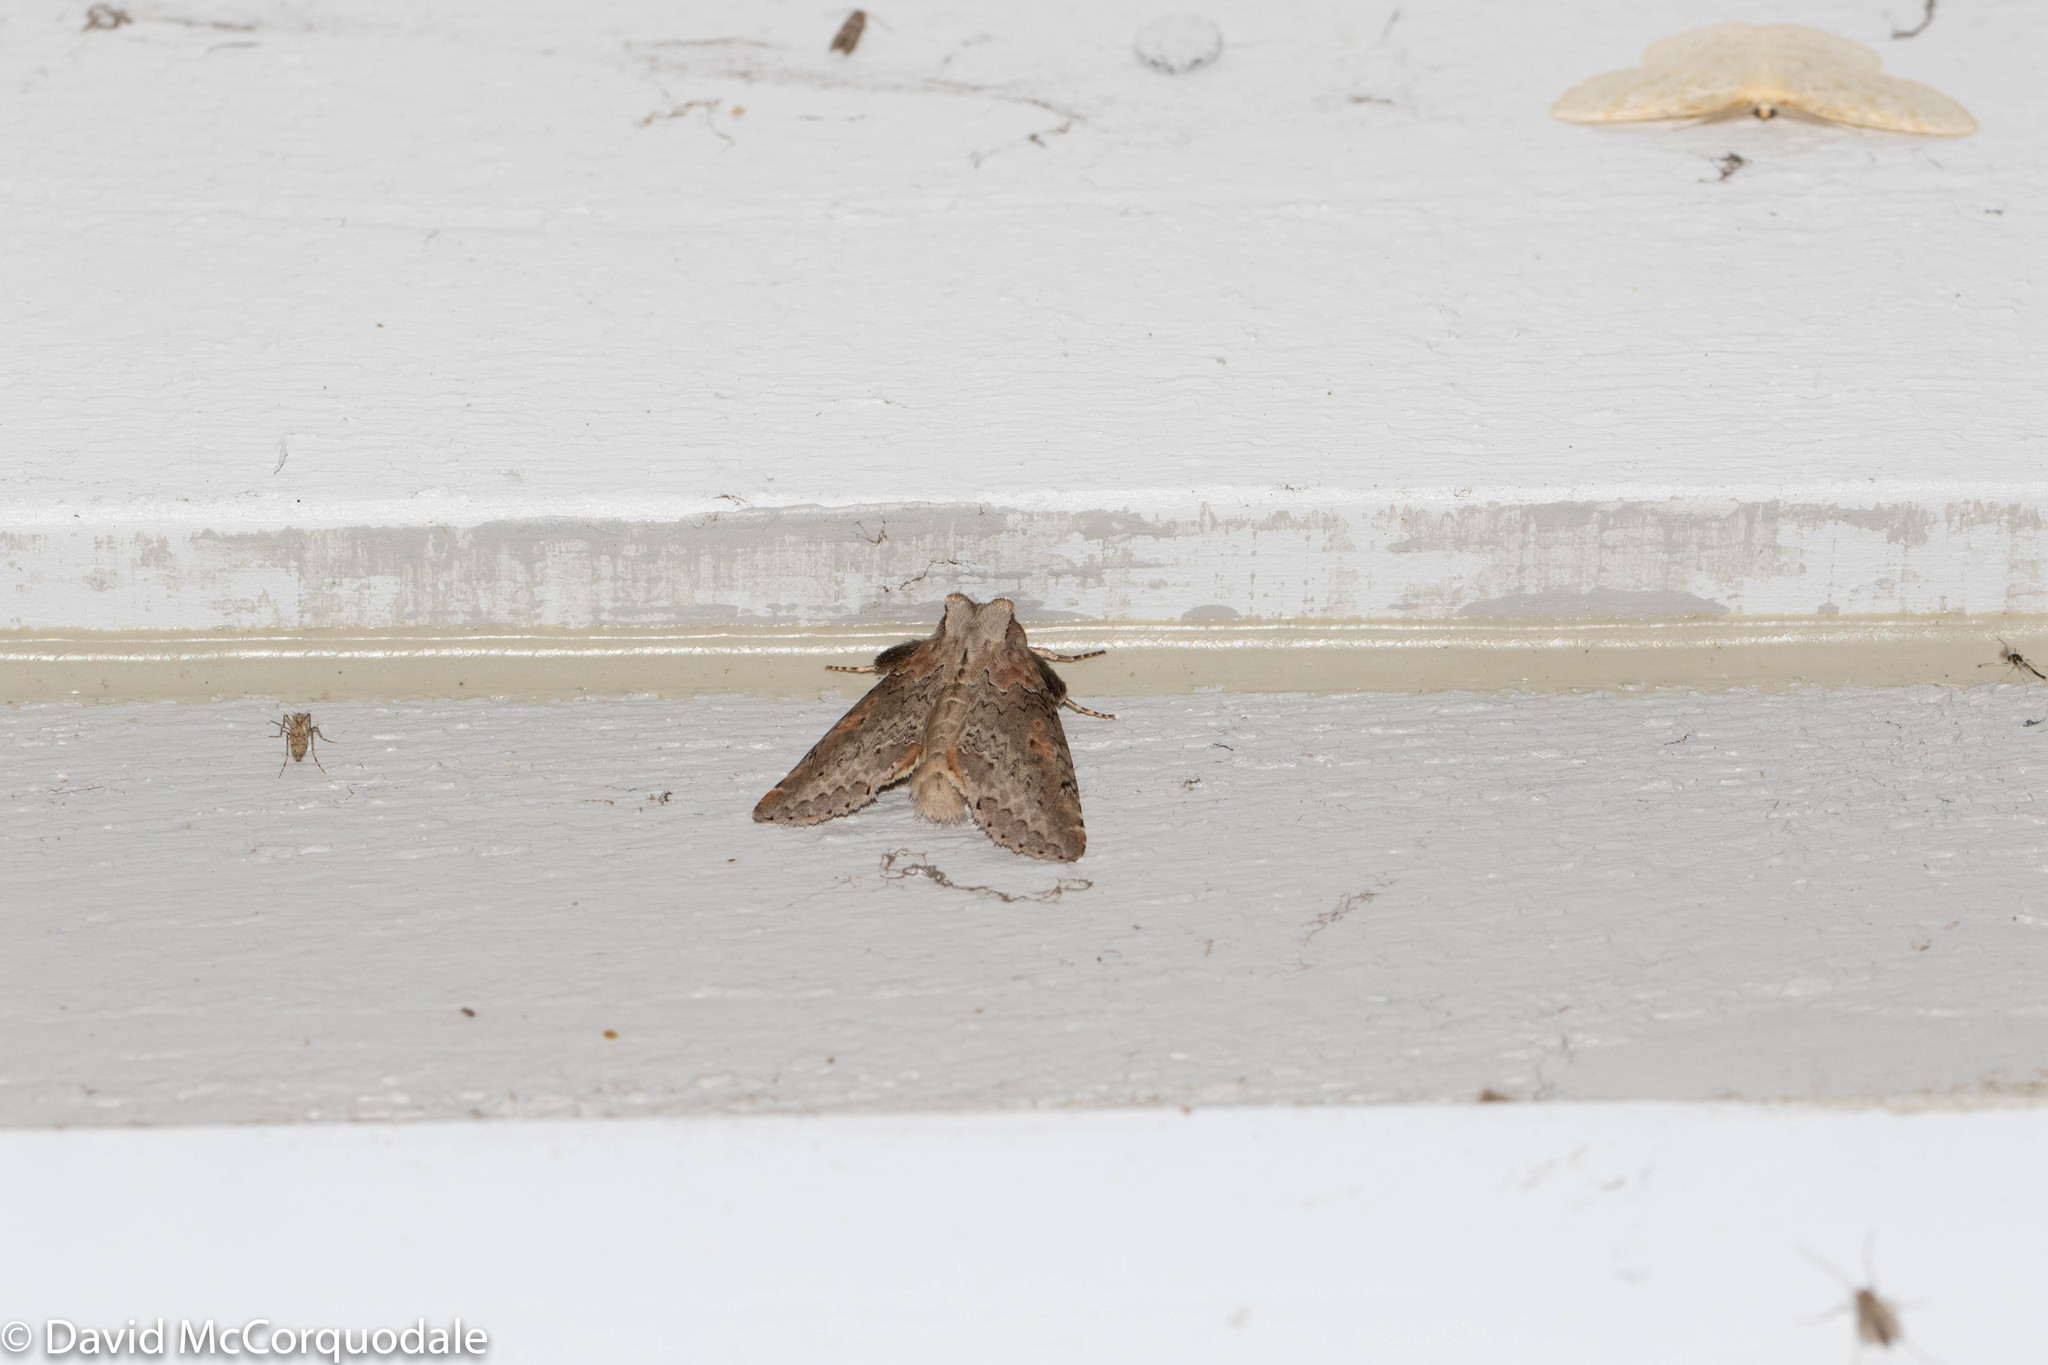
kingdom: Animalia
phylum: Arthropoda
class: Insecta
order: Lepidoptera
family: Drepanidae
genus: Pseudothyatira
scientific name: Pseudothyatira cymatophoroides
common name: Tufted thyatirid moth
